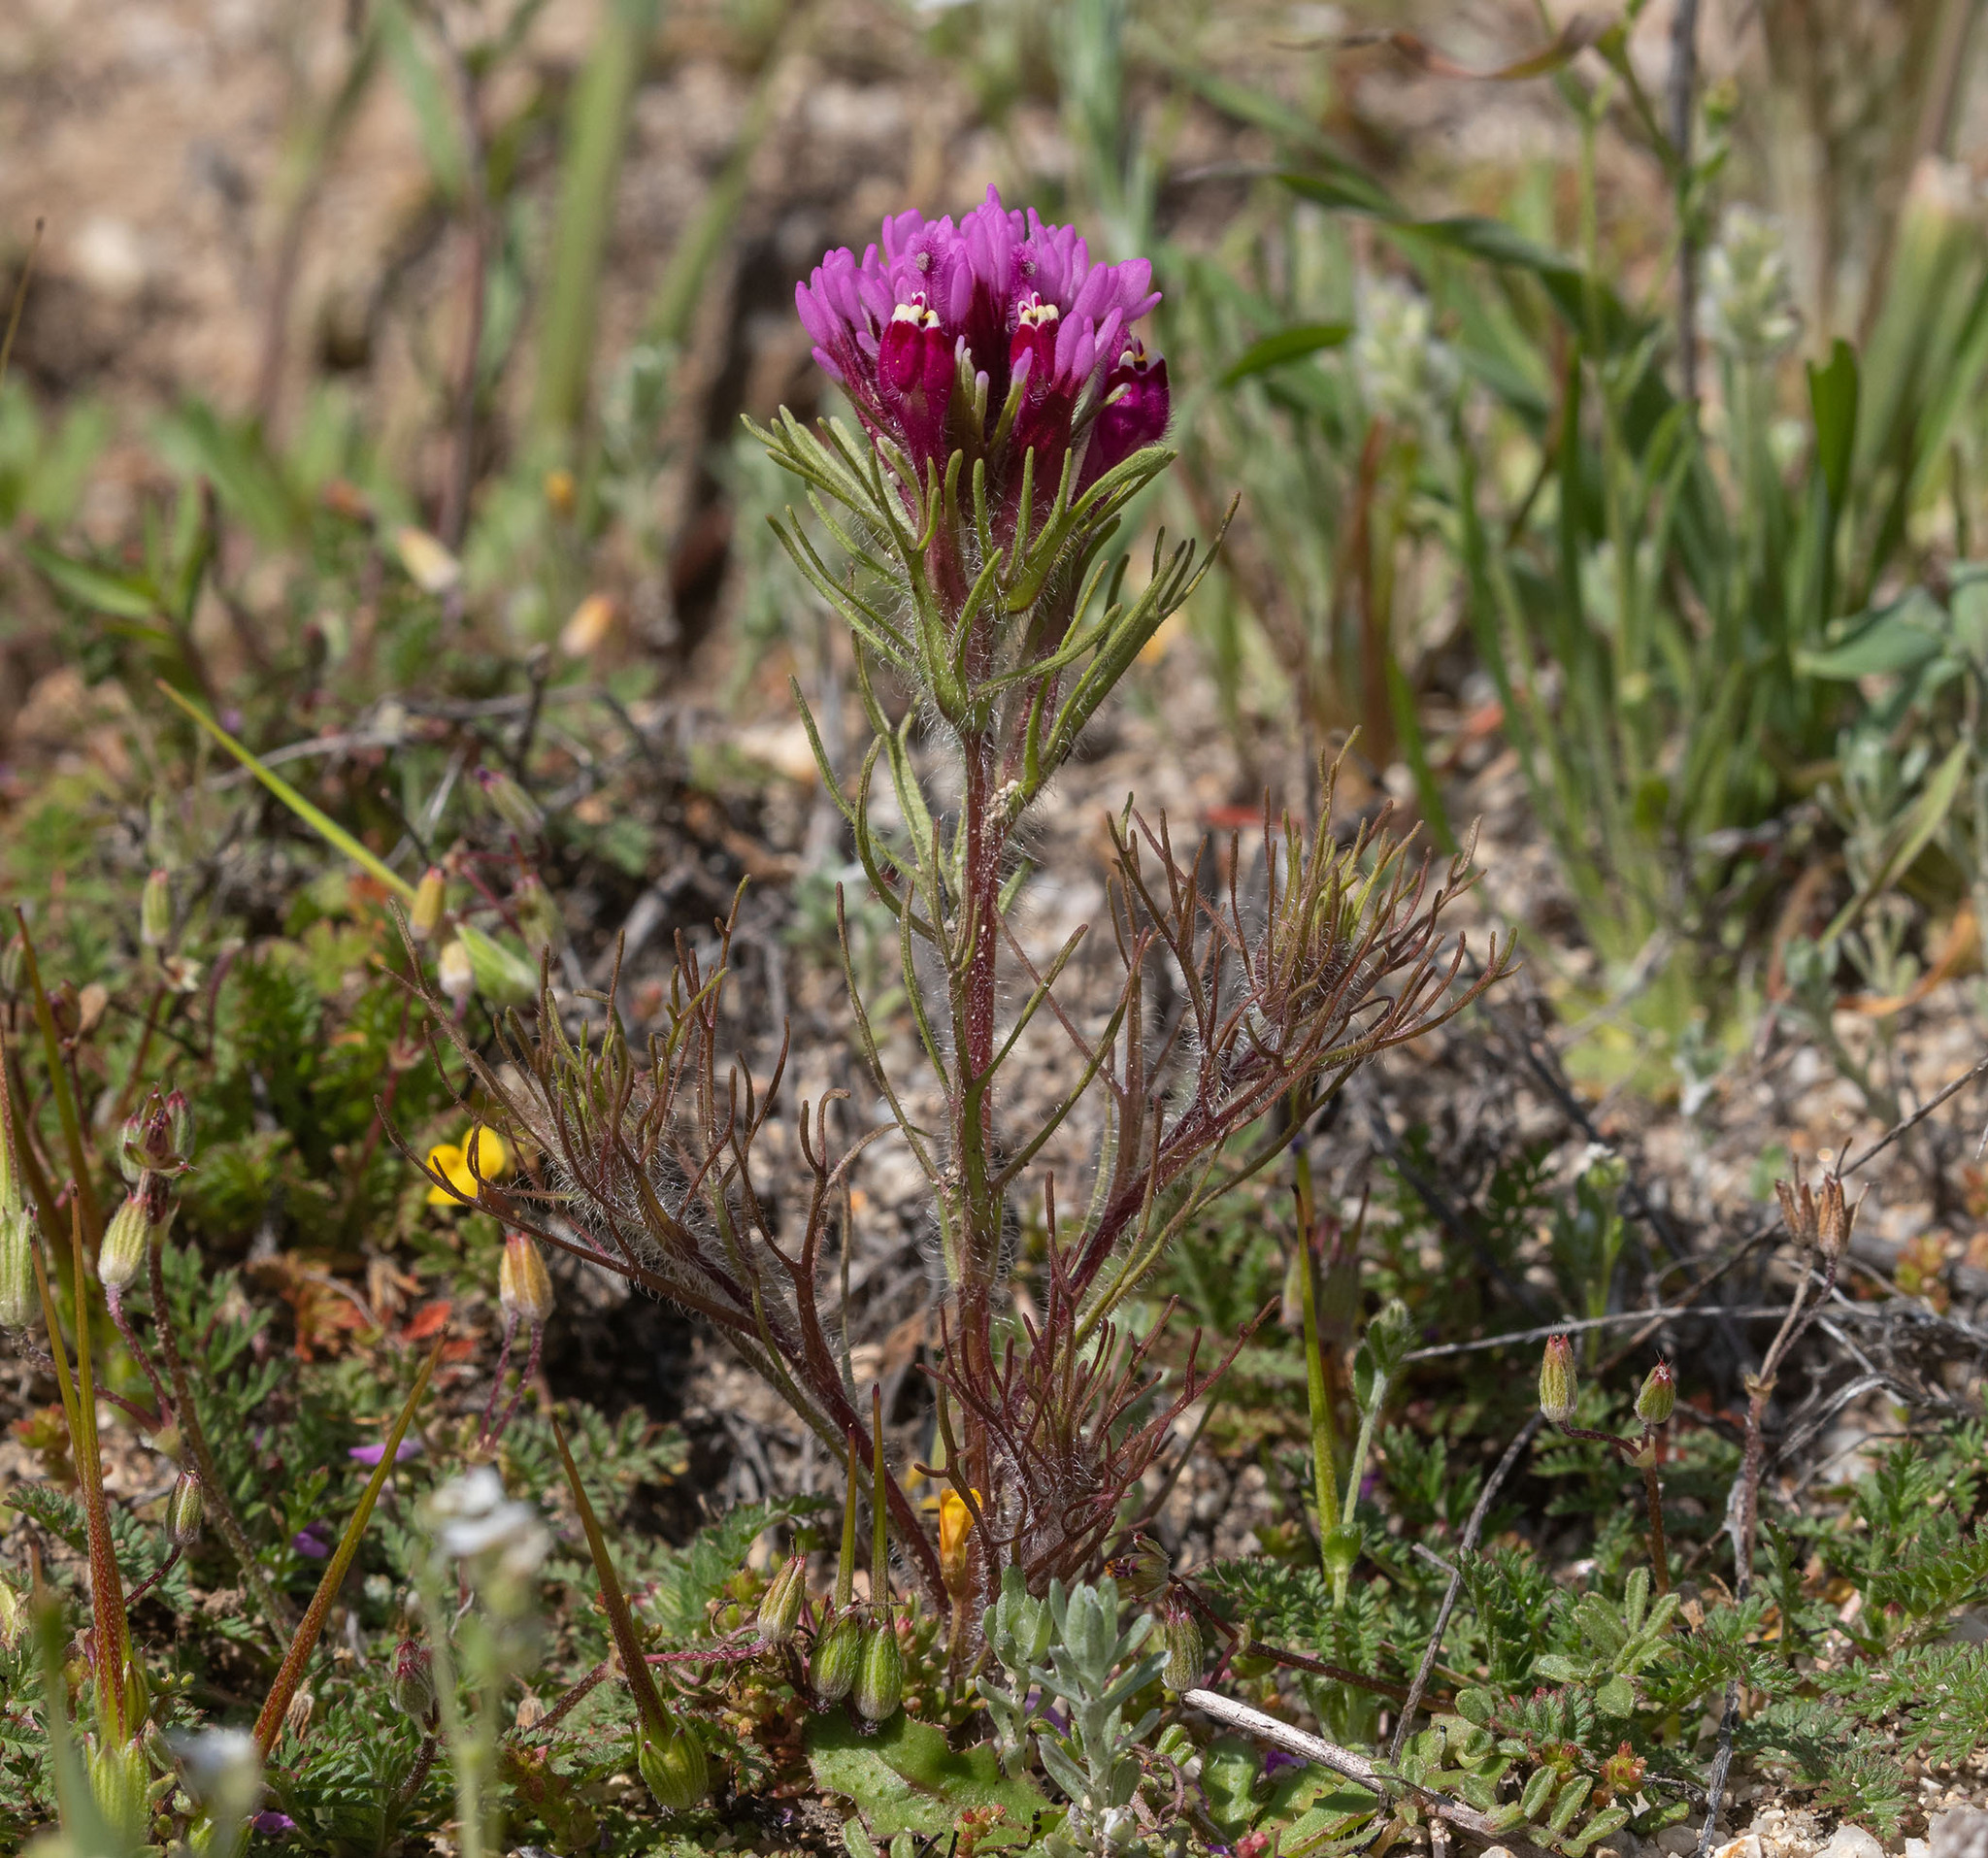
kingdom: Plantae
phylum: Tracheophyta
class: Magnoliopsida
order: Lamiales
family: Orobanchaceae
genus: Castilleja
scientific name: Castilleja exserta
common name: Purple owl-clover
